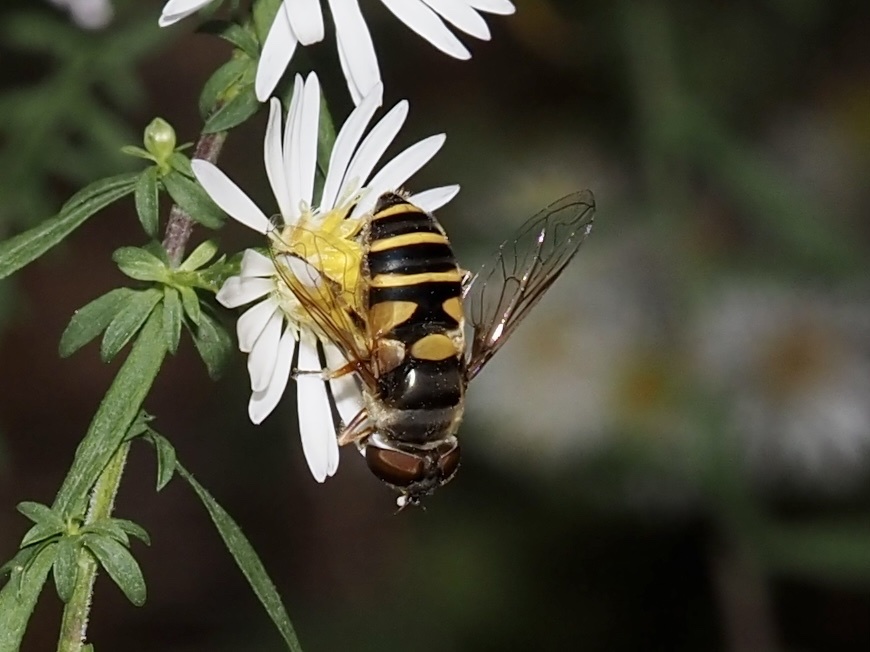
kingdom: Animalia
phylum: Arthropoda
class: Insecta
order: Diptera
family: Syrphidae
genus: Eristalis
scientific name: Eristalis transversa
